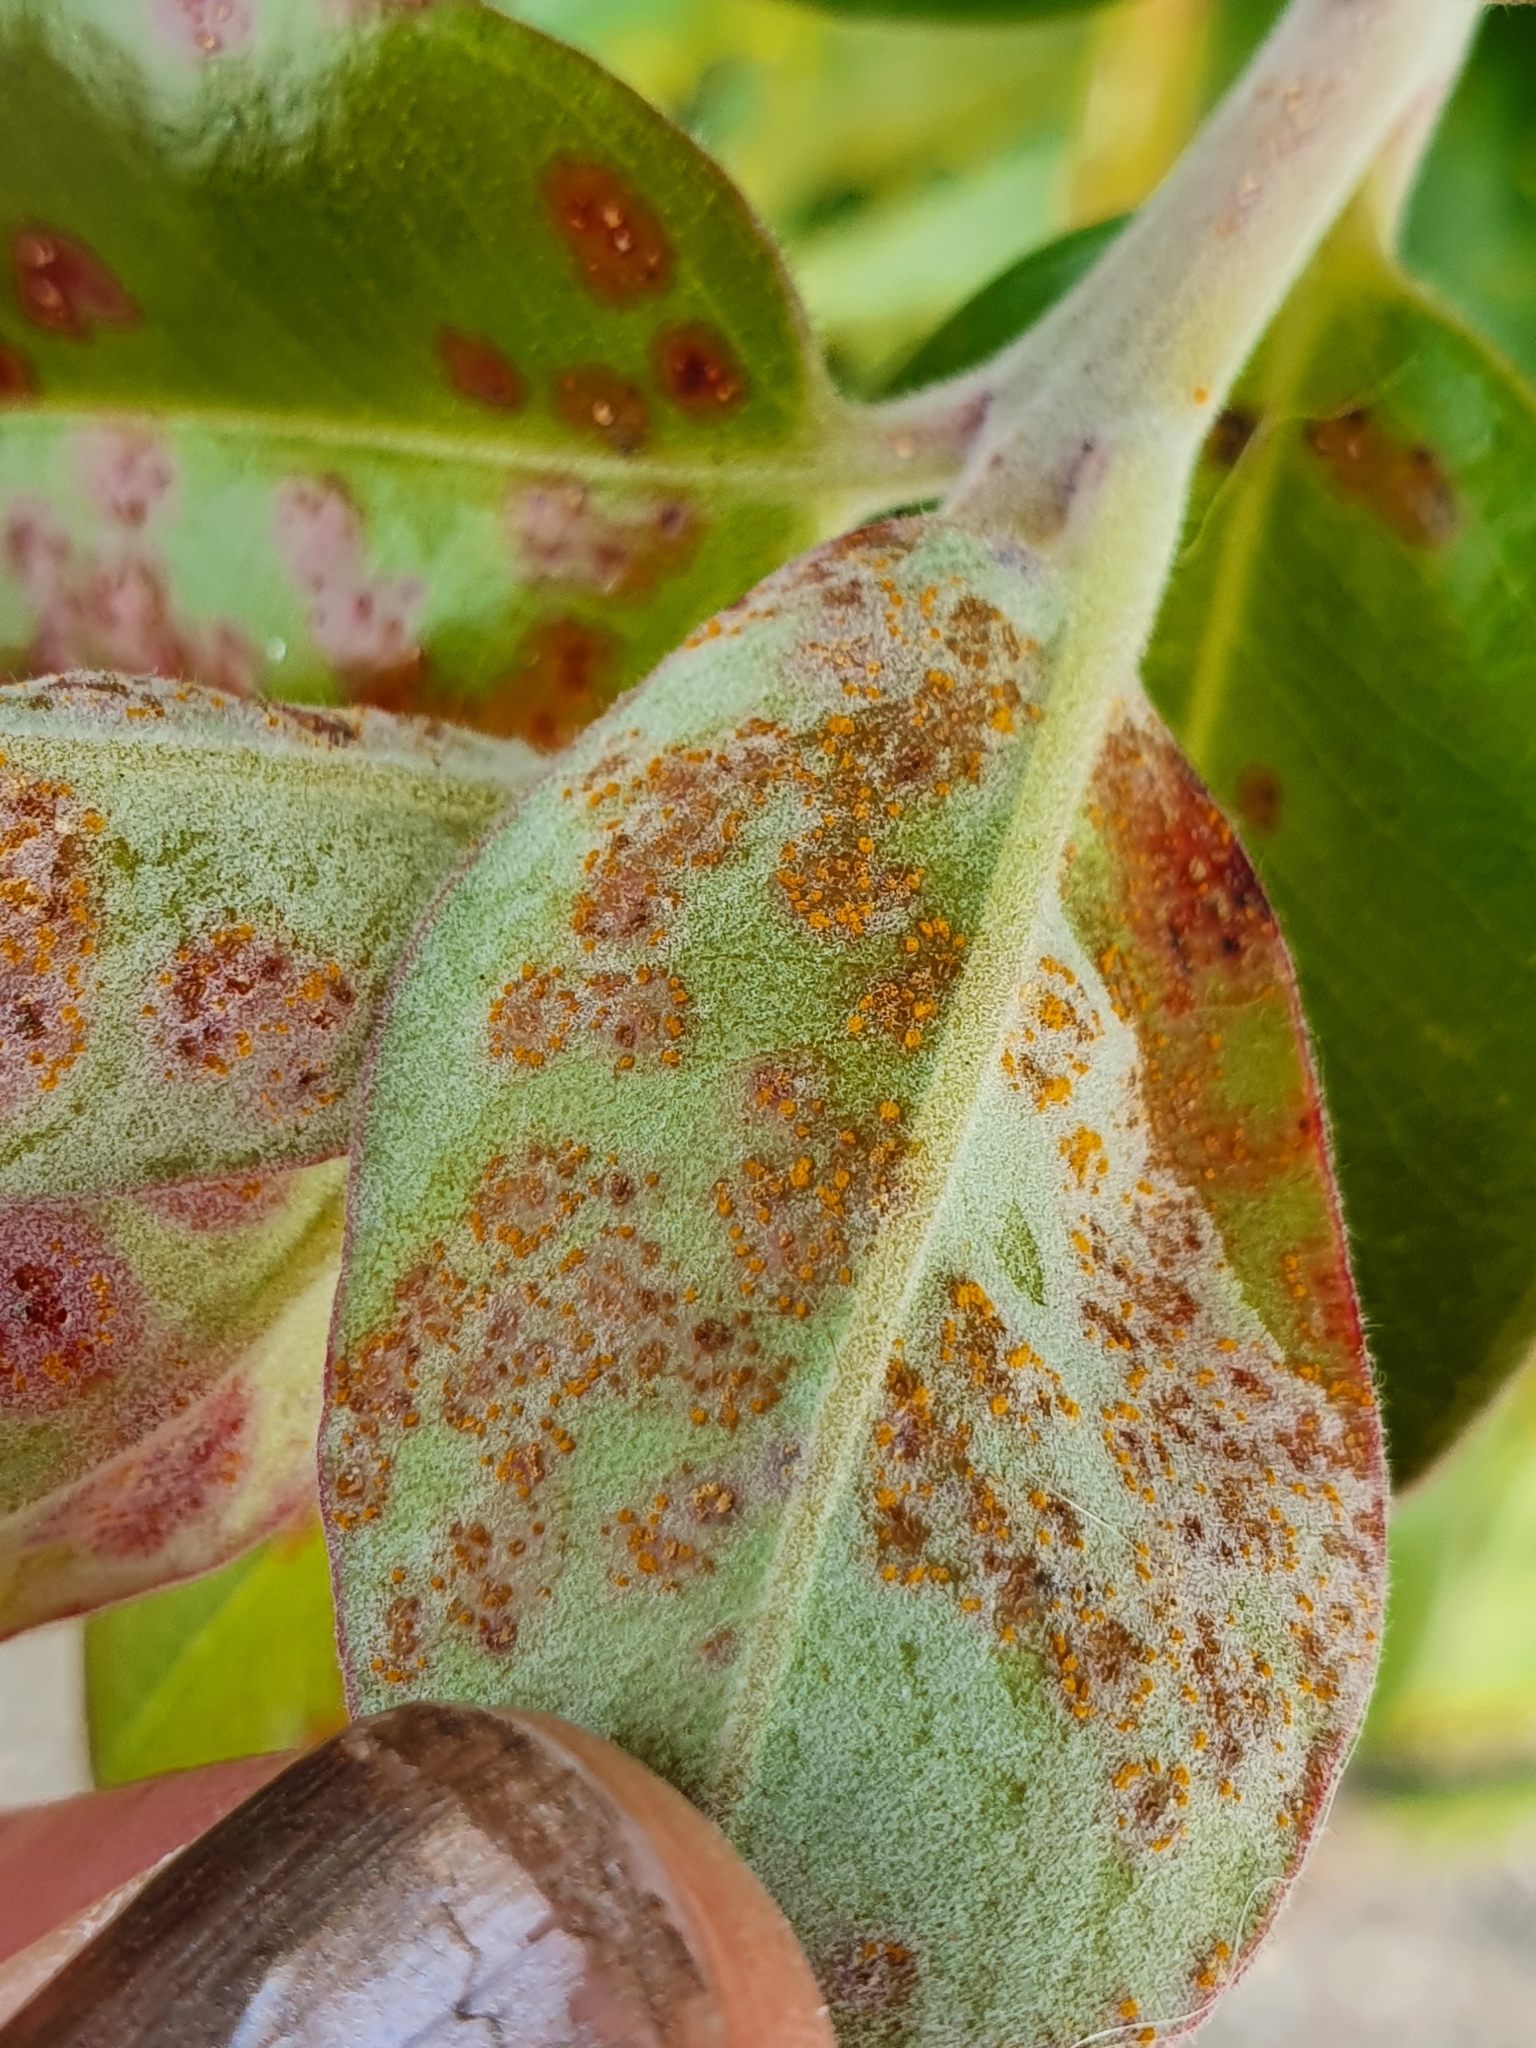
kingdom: Fungi
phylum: Basidiomycota
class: Pucciniomycetes
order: Pucciniales
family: Sphaerophragmiaceae
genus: Austropuccinia
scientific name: Austropuccinia psidii
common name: Myrtle rust
